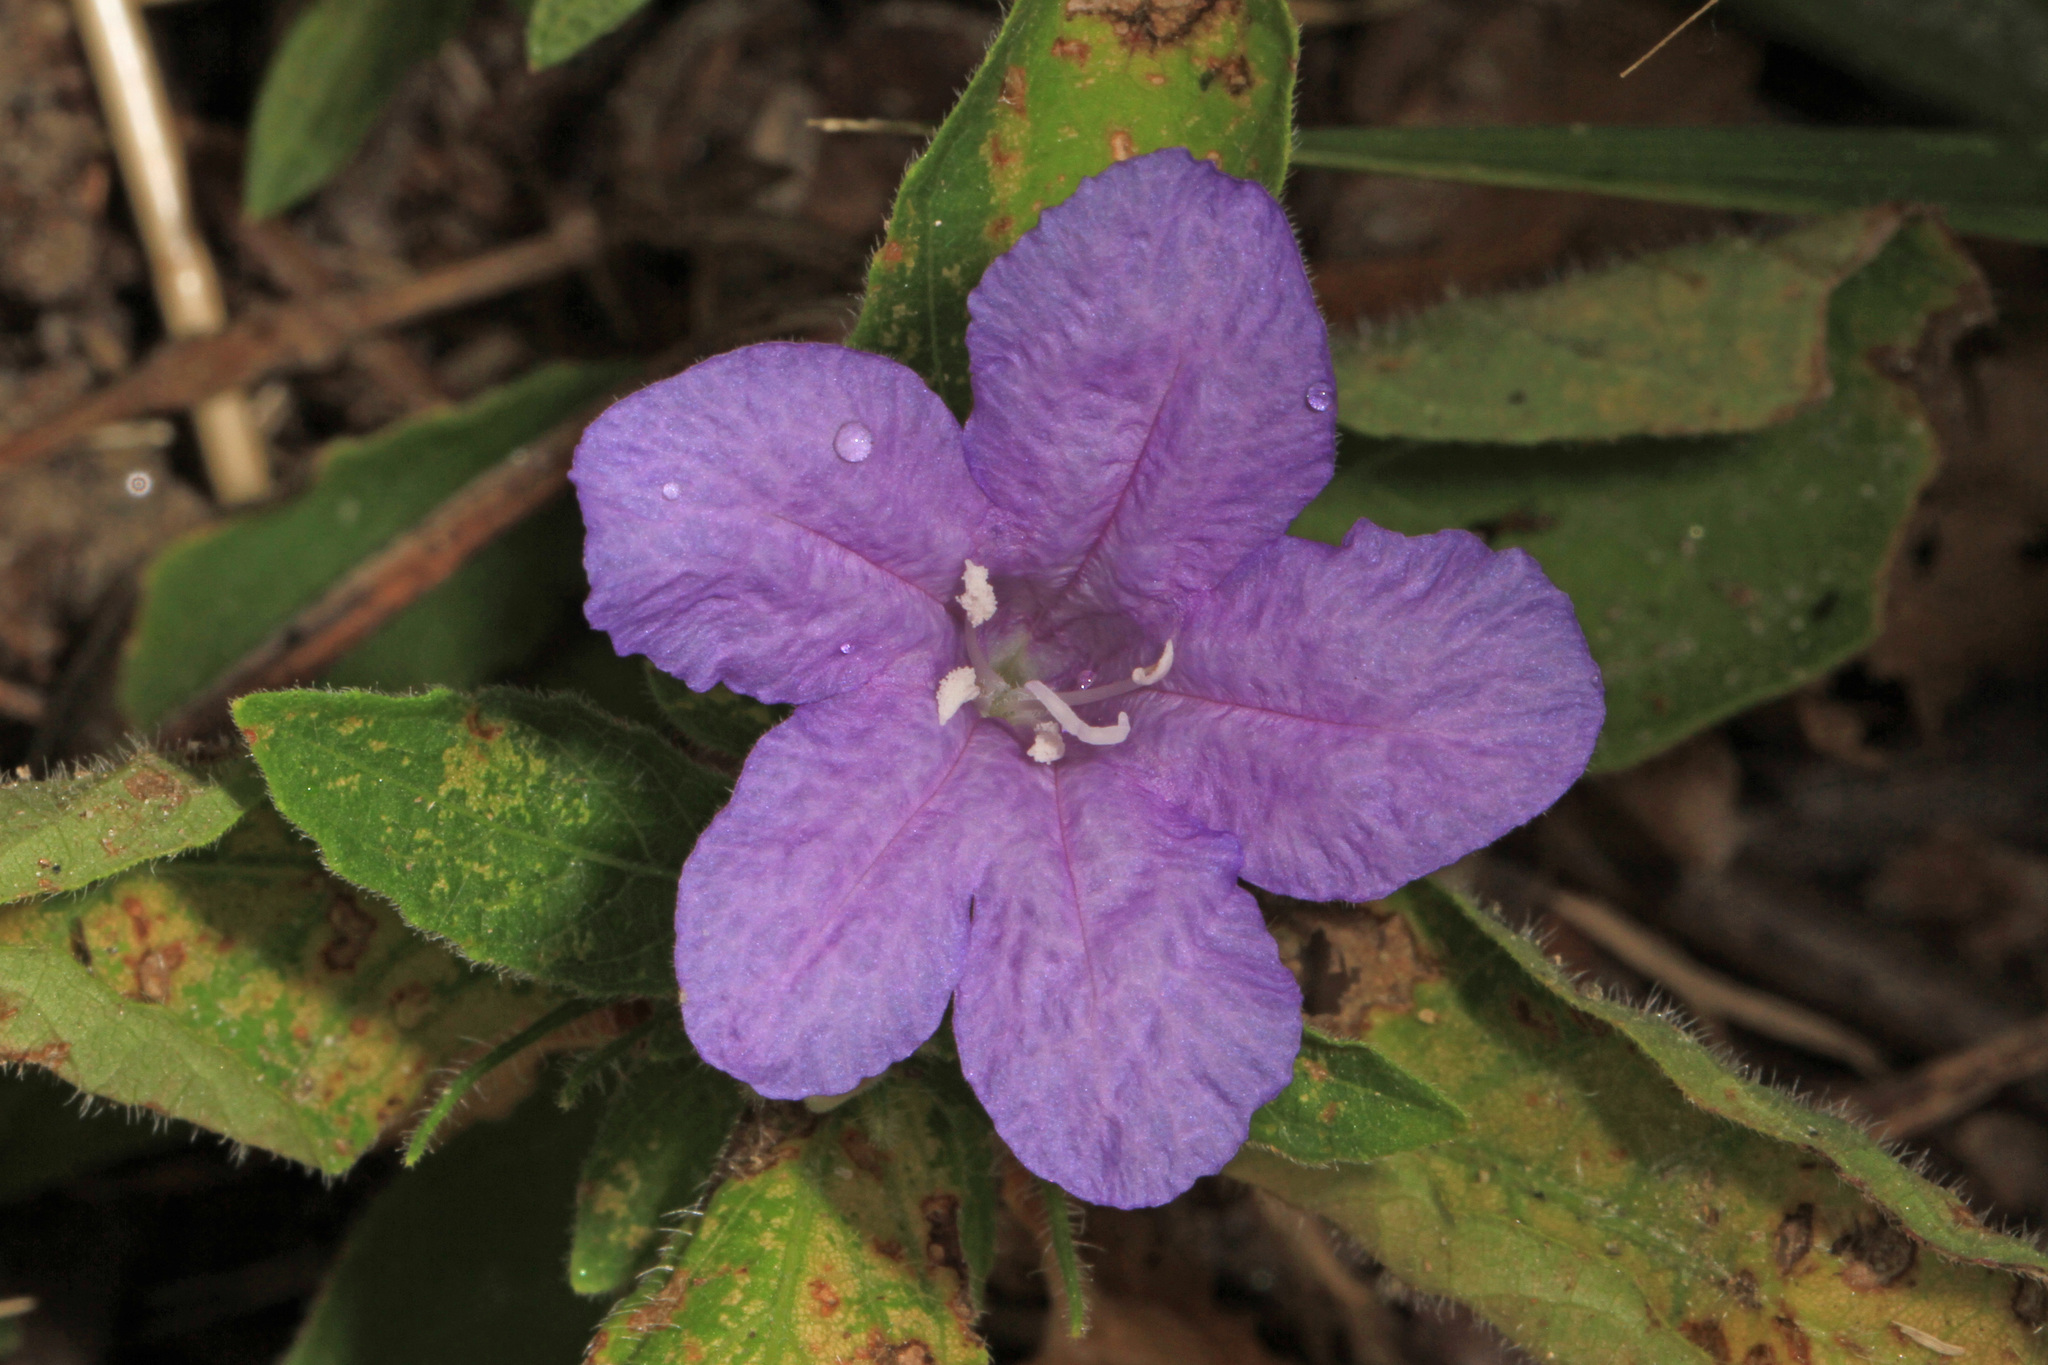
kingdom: Plantae
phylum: Tracheophyta
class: Magnoliopsida
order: Lamiales
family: Acanthaceae
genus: Ruellia
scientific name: Ruellia caroliniensis
